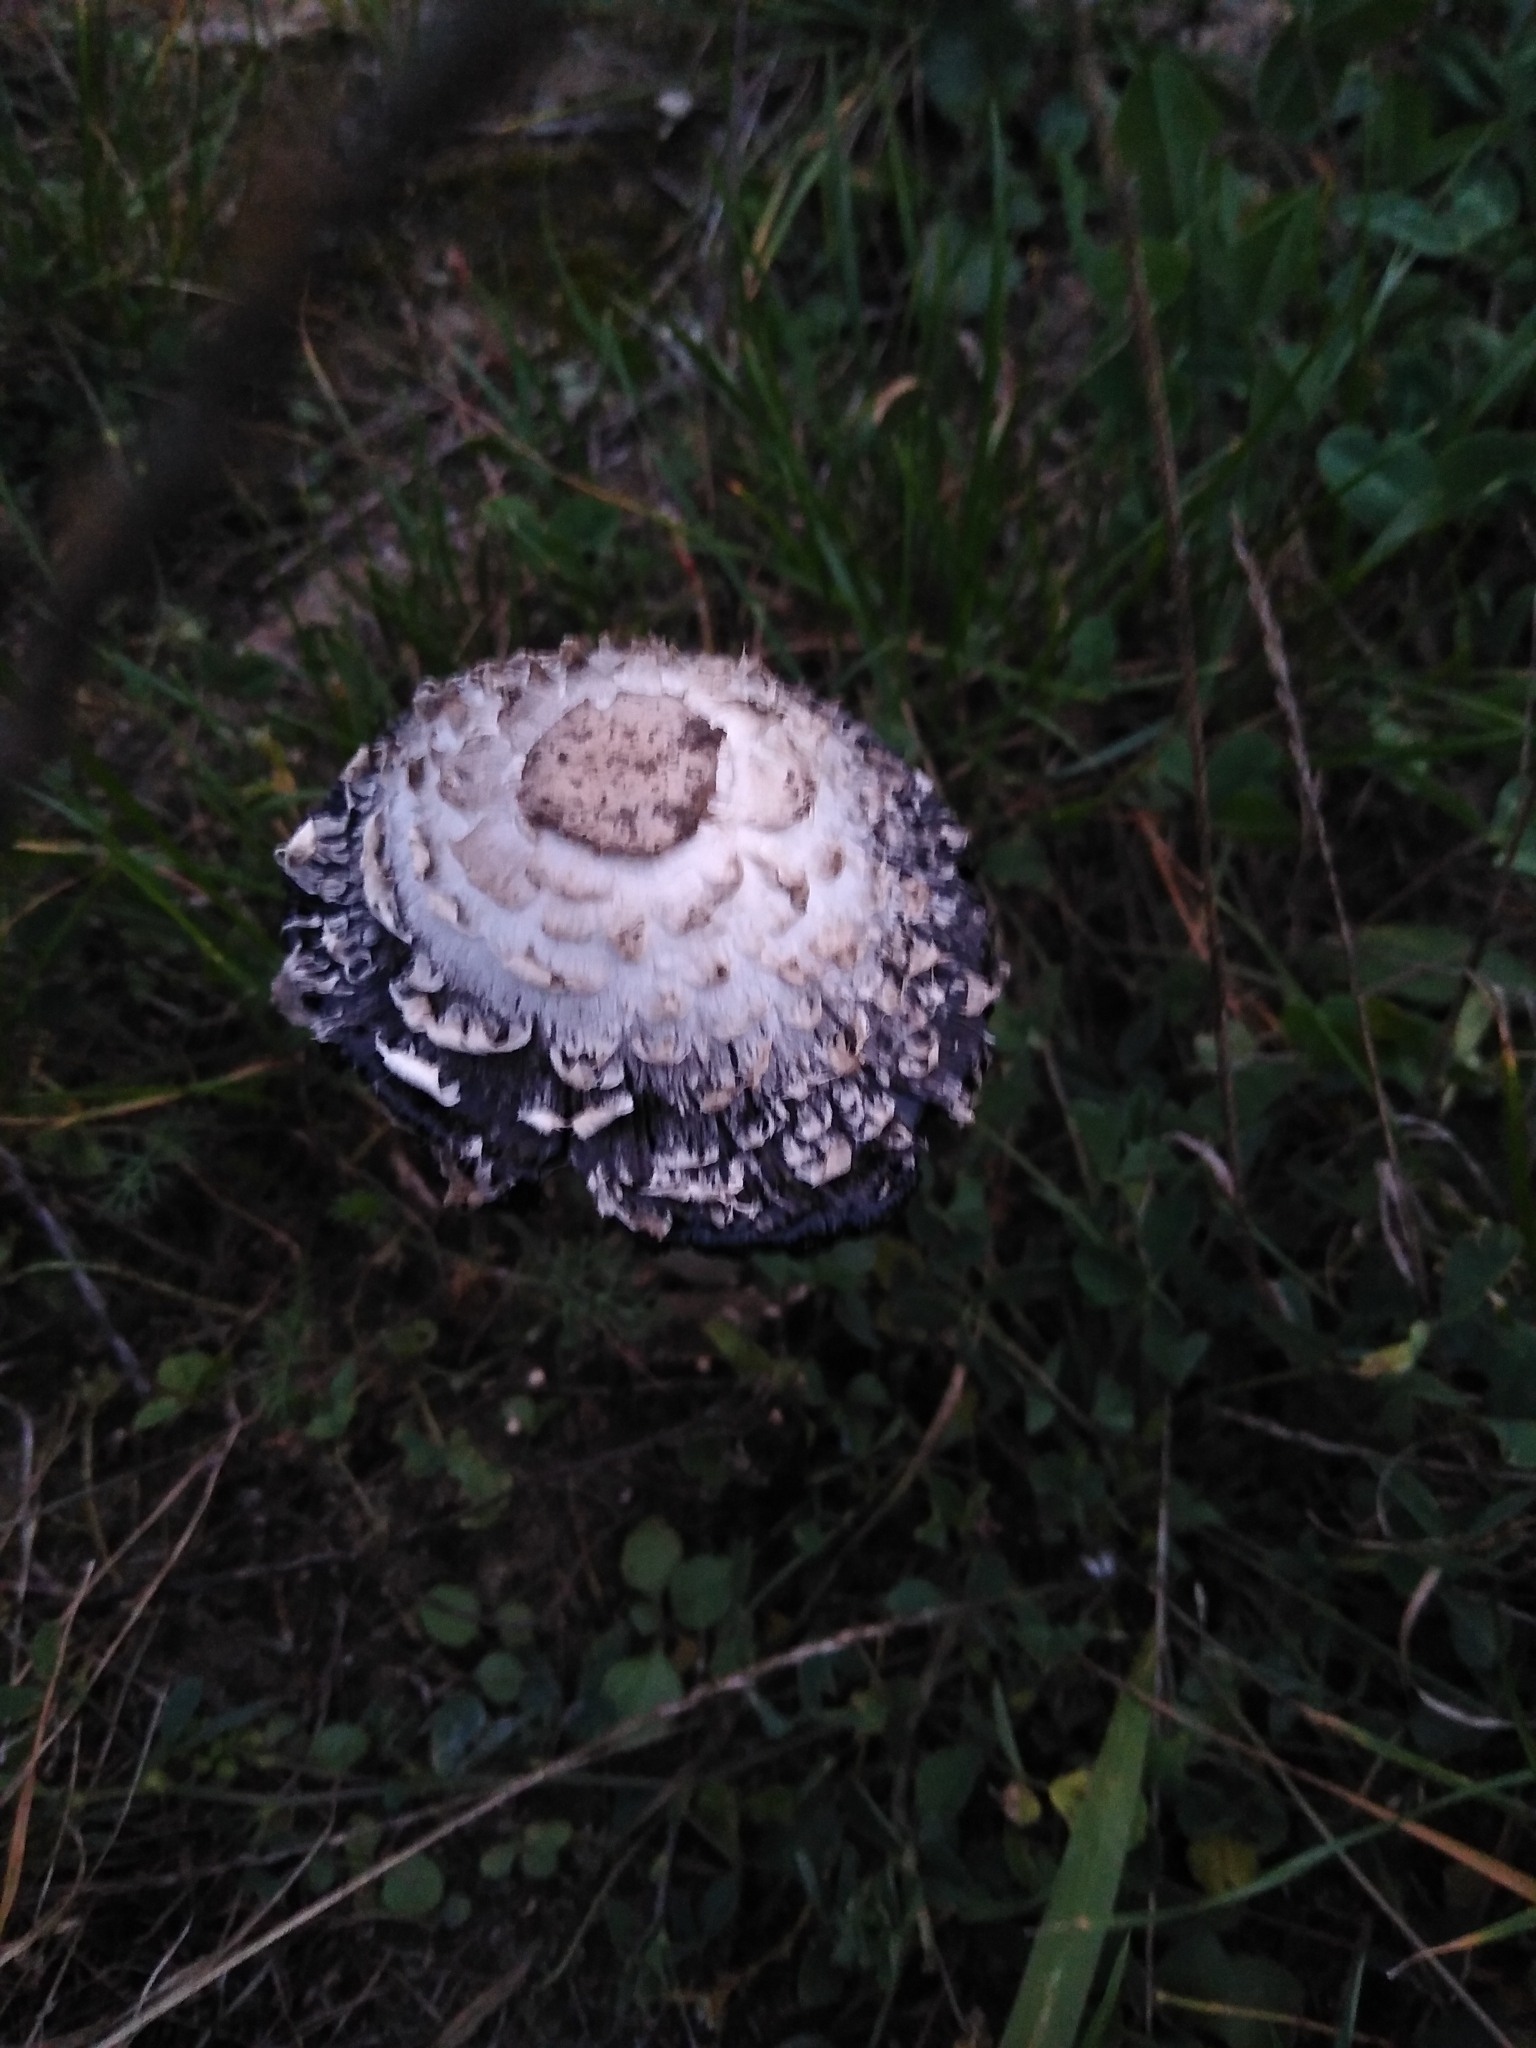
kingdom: Fungi
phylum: Basidiomycota
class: Agaricomycetes
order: Agaricales
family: Agaricaceae
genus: Coprinus
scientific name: Coprinus comatus
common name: Lawyer's wig
